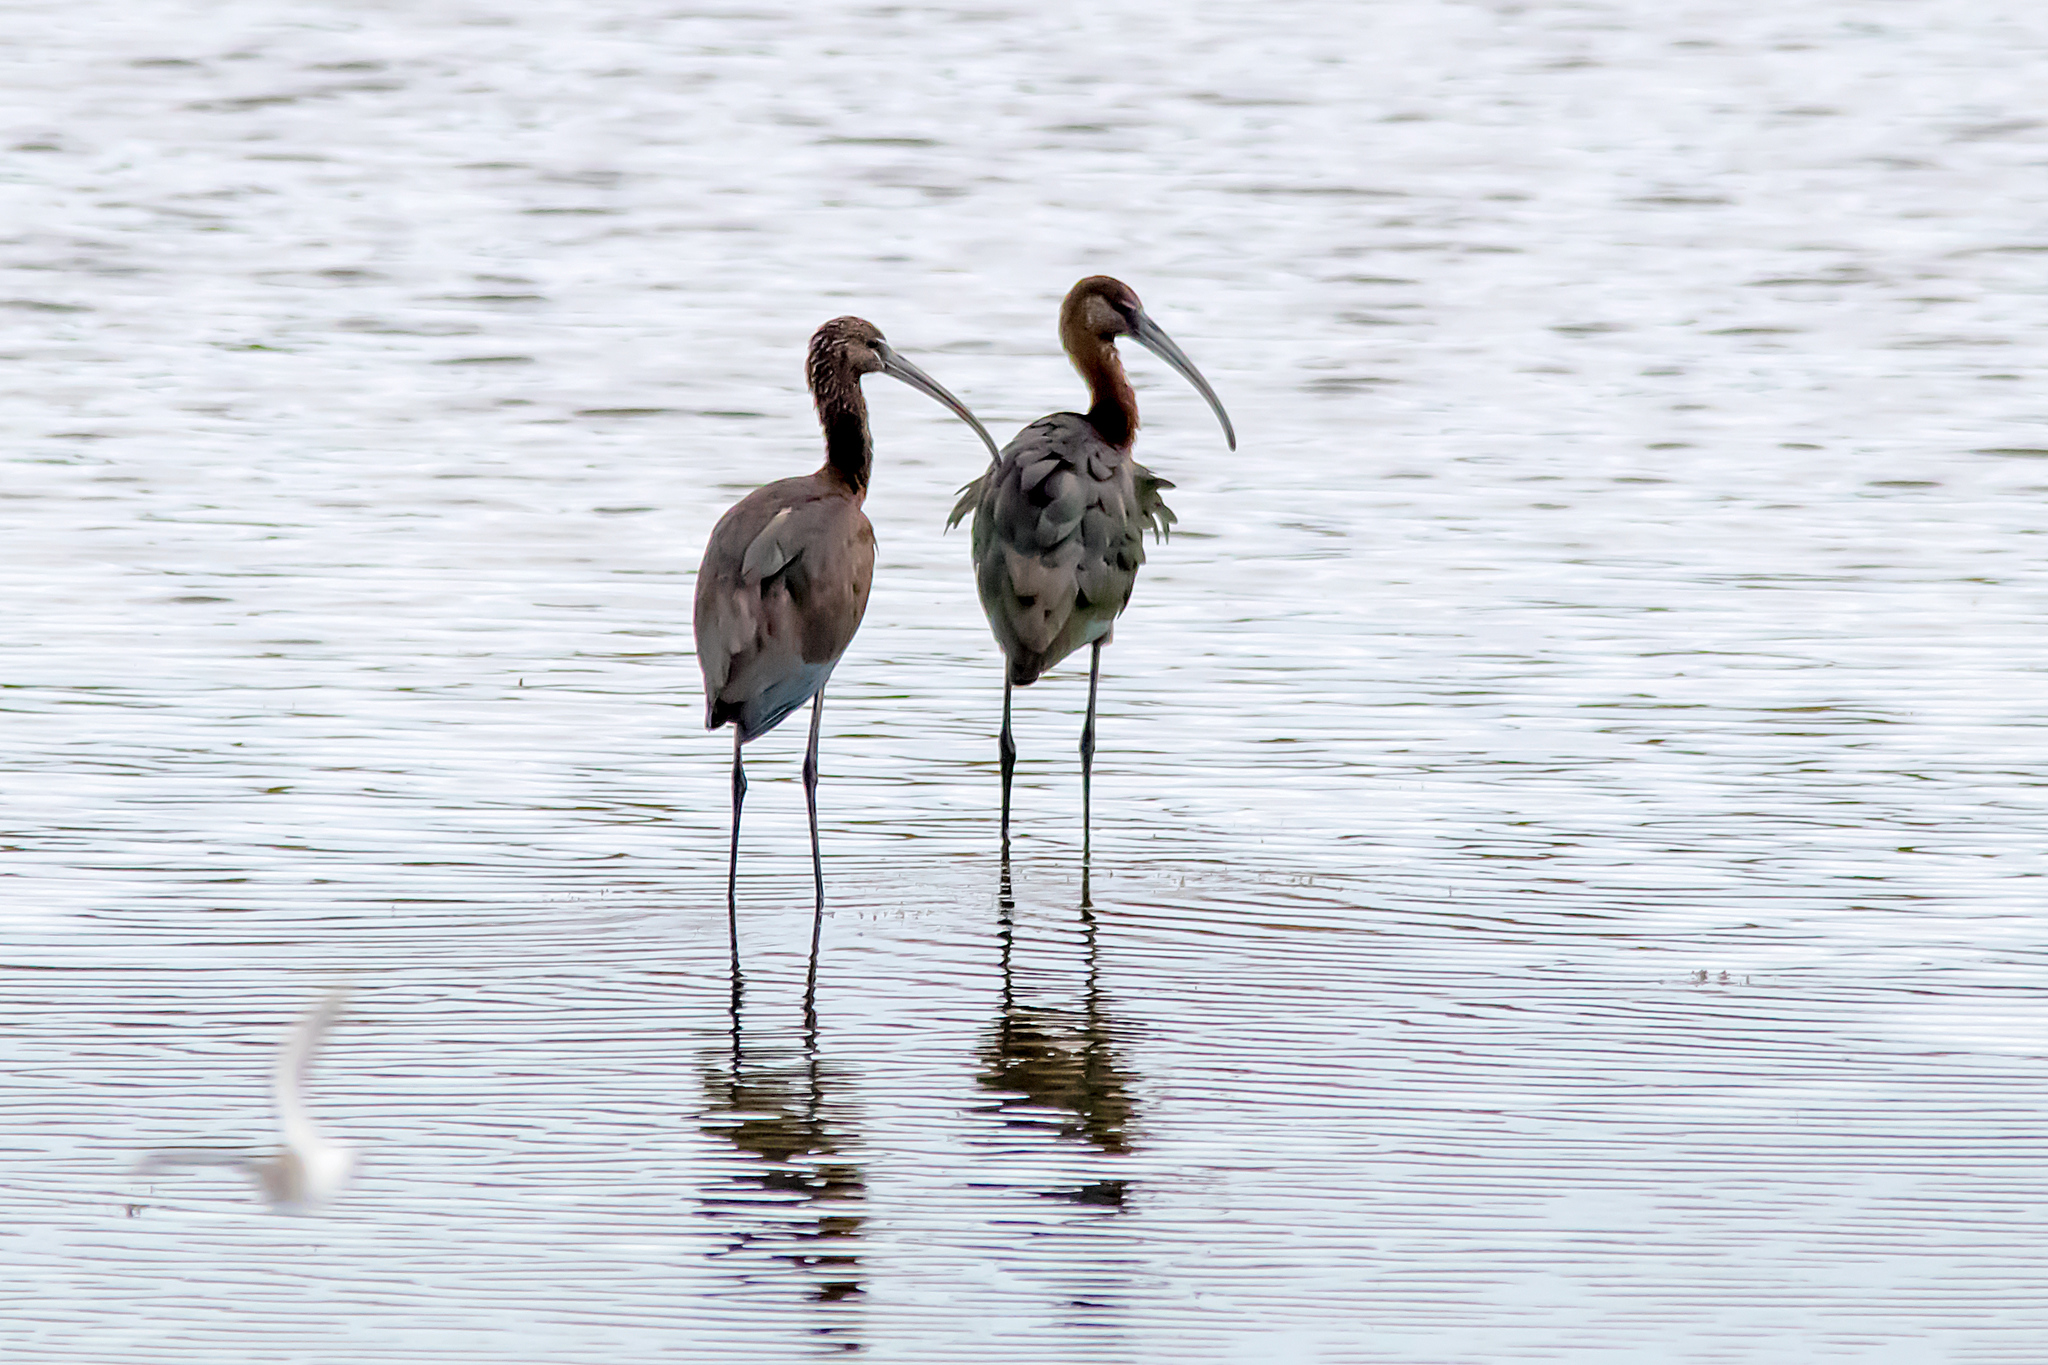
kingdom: Animalia
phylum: Chordata
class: Aves
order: Pelecaniformes
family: Threskiornithidae
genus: Plegadis
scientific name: Plegadis falcinellus
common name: Glossy ibis
